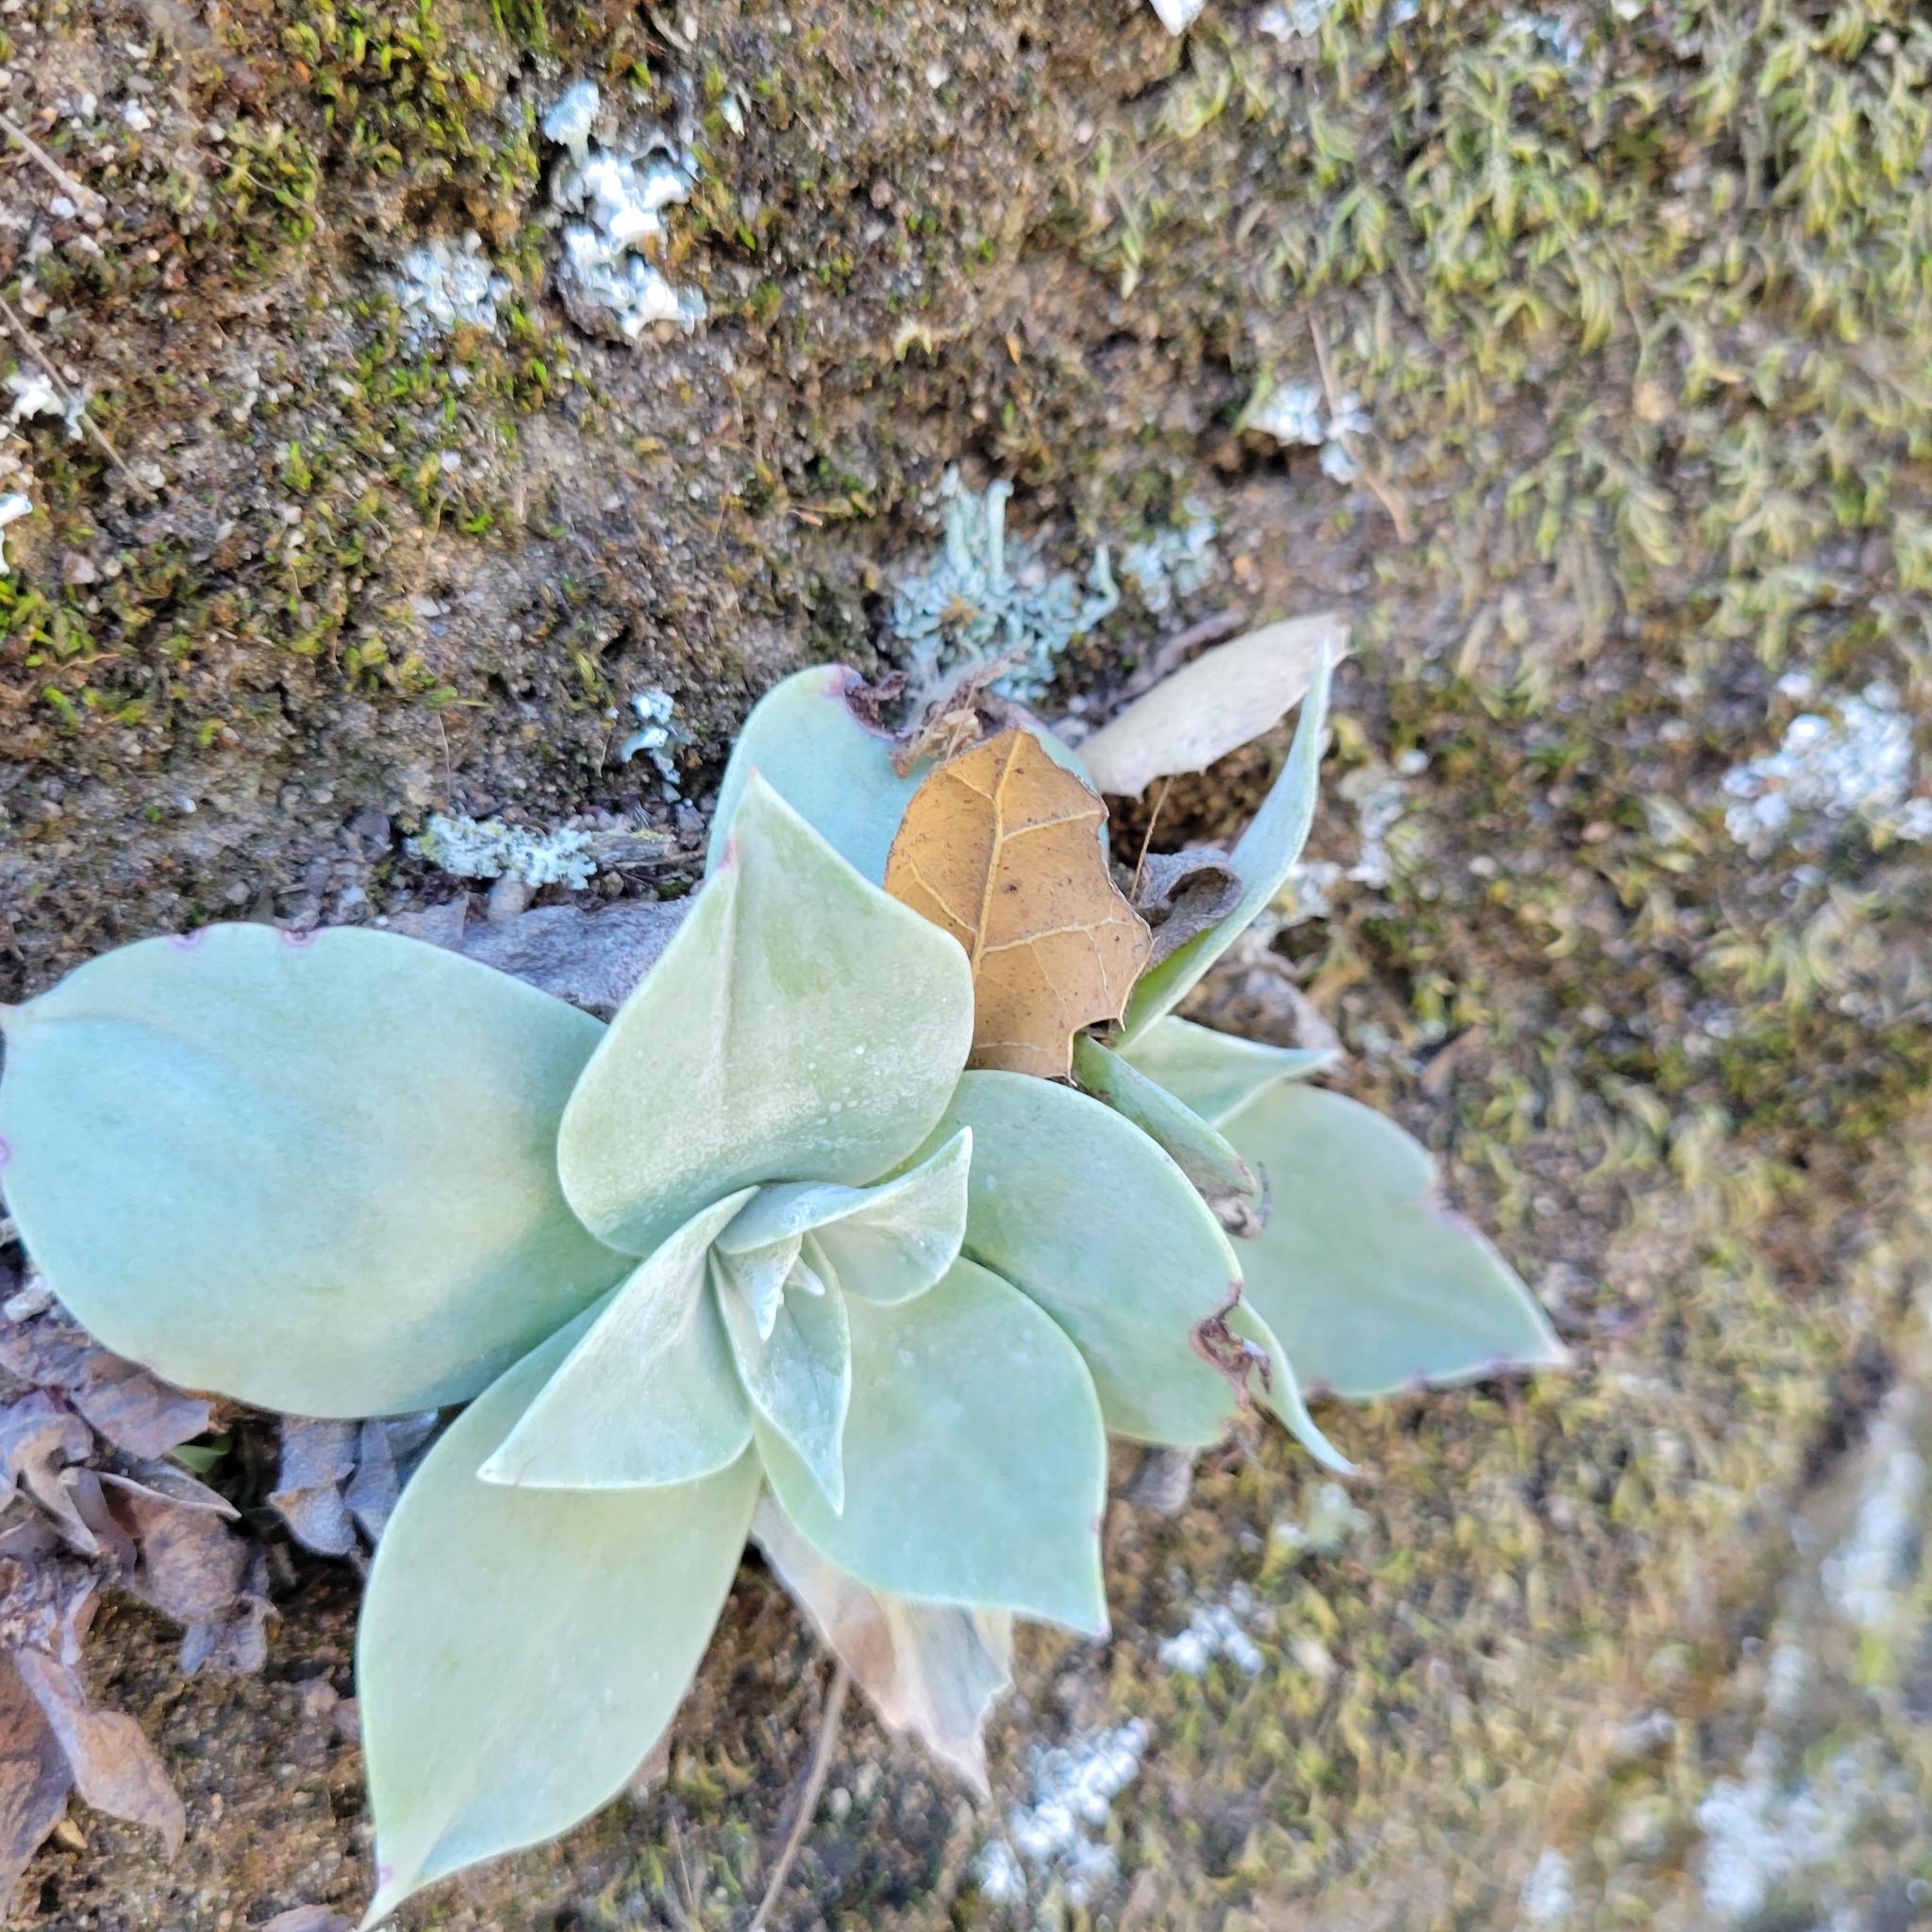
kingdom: Plantae
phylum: Tracheophyta
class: Magnoliopsida
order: Saxifragales
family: Crassulaceae
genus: Dudleya
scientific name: Dudleya pulverulenta
